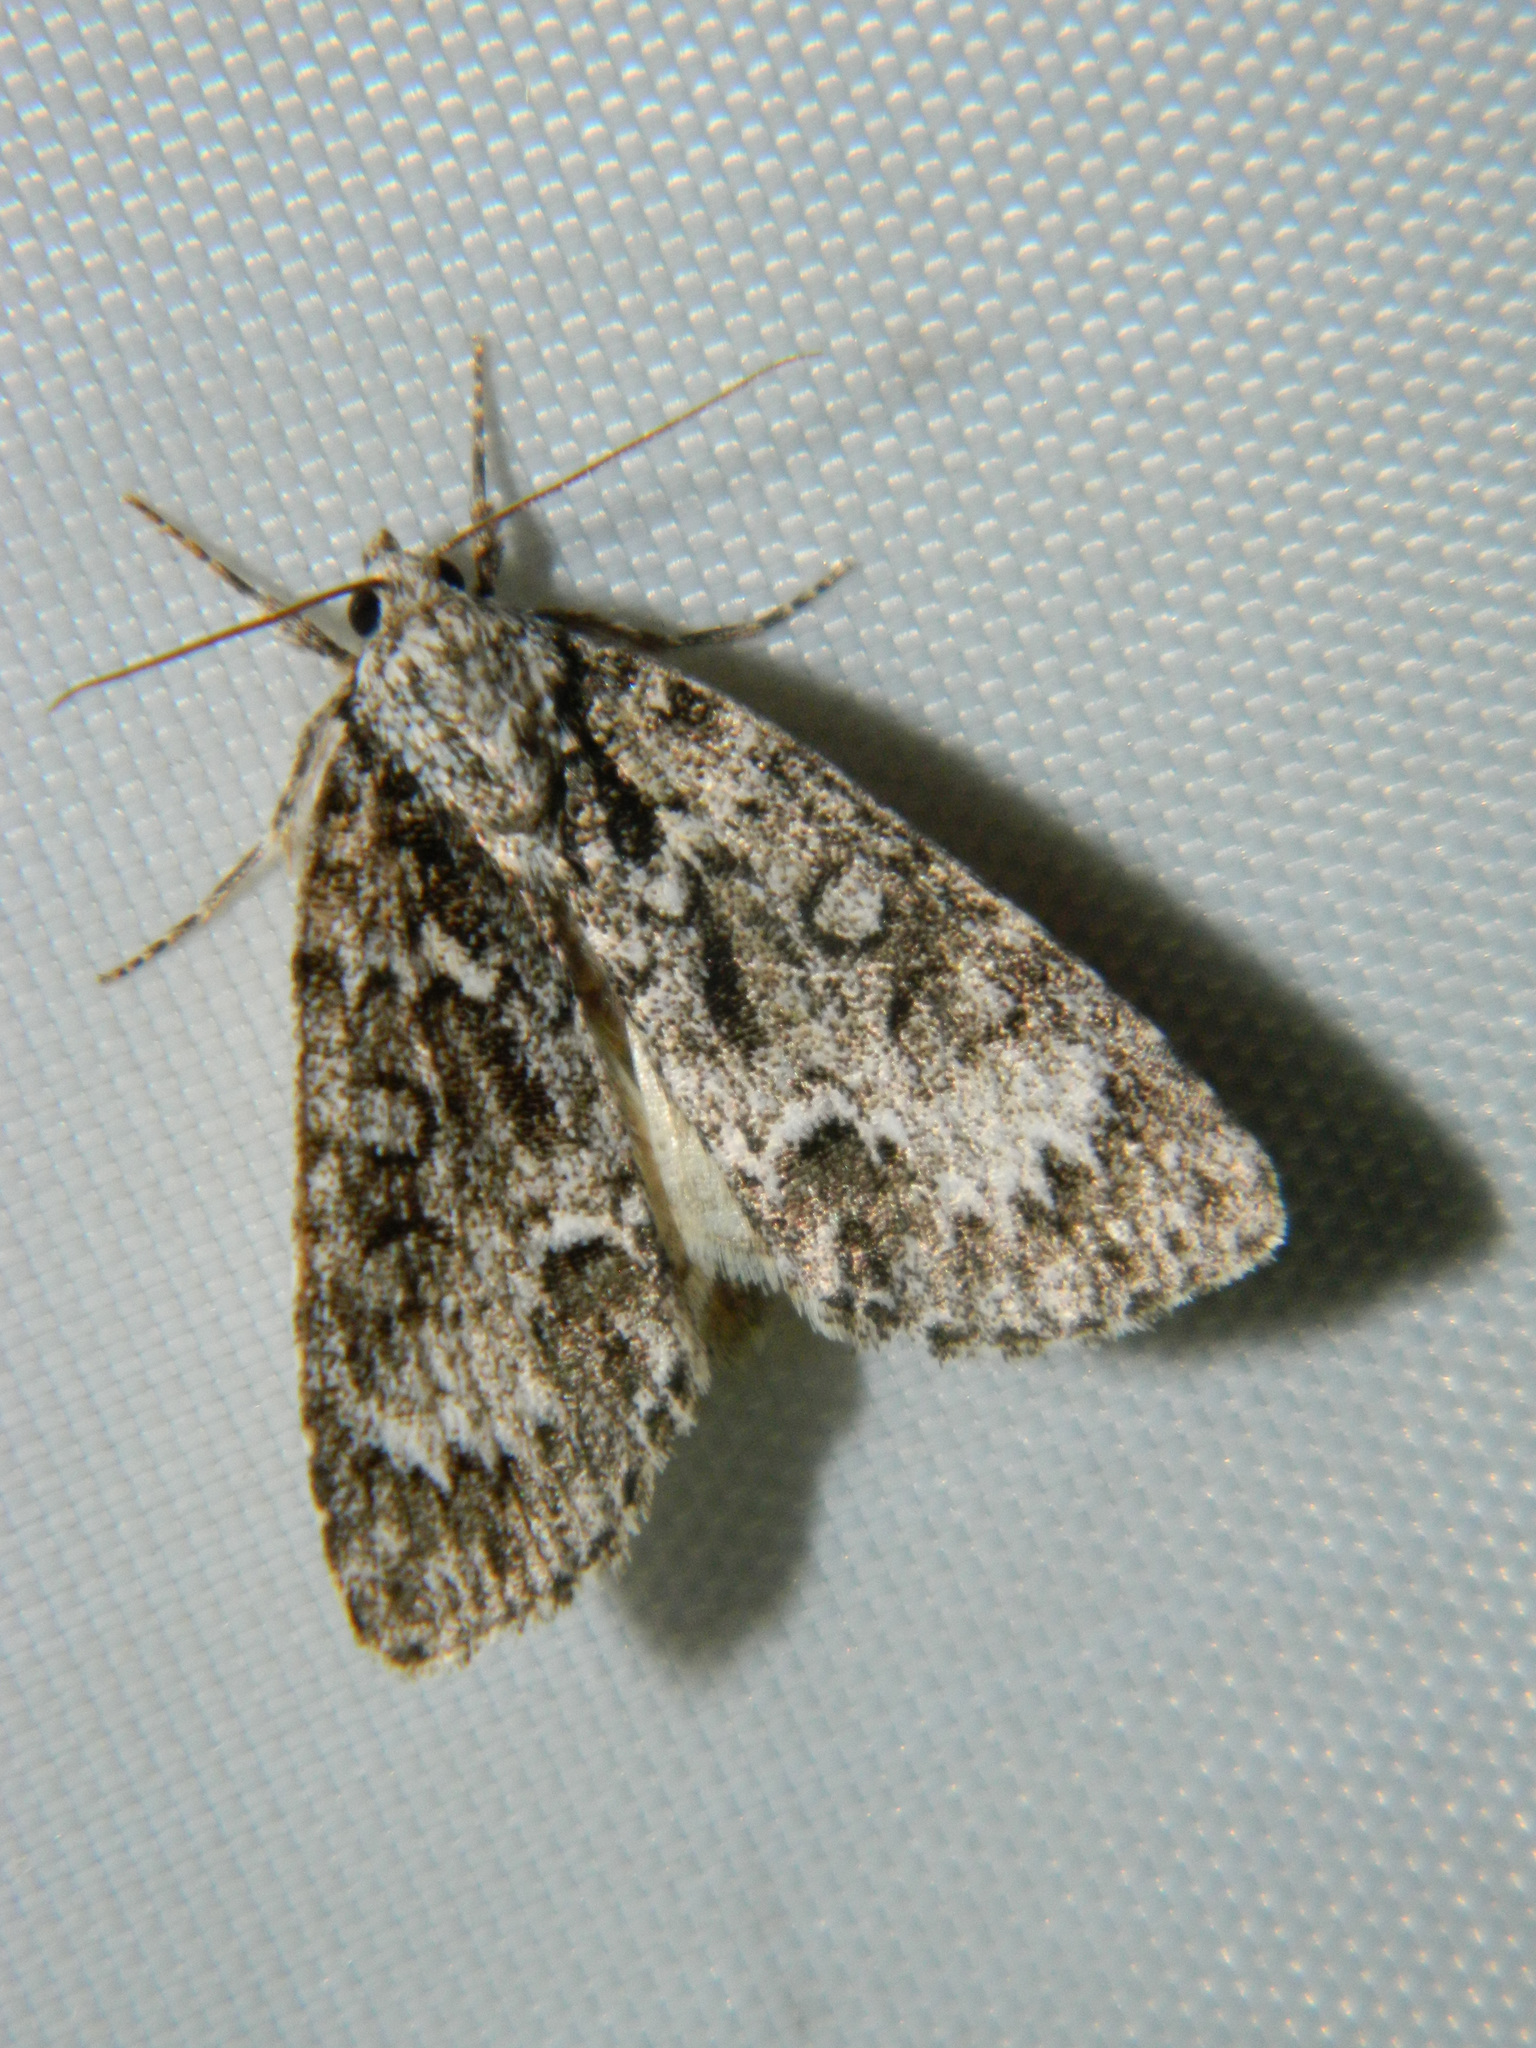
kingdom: Animalia
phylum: Arthropoda
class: Insecta
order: Lepidoptera
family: Noctuidae
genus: Acronicta
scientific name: Acronicta fragilis
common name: Fragile dagger
